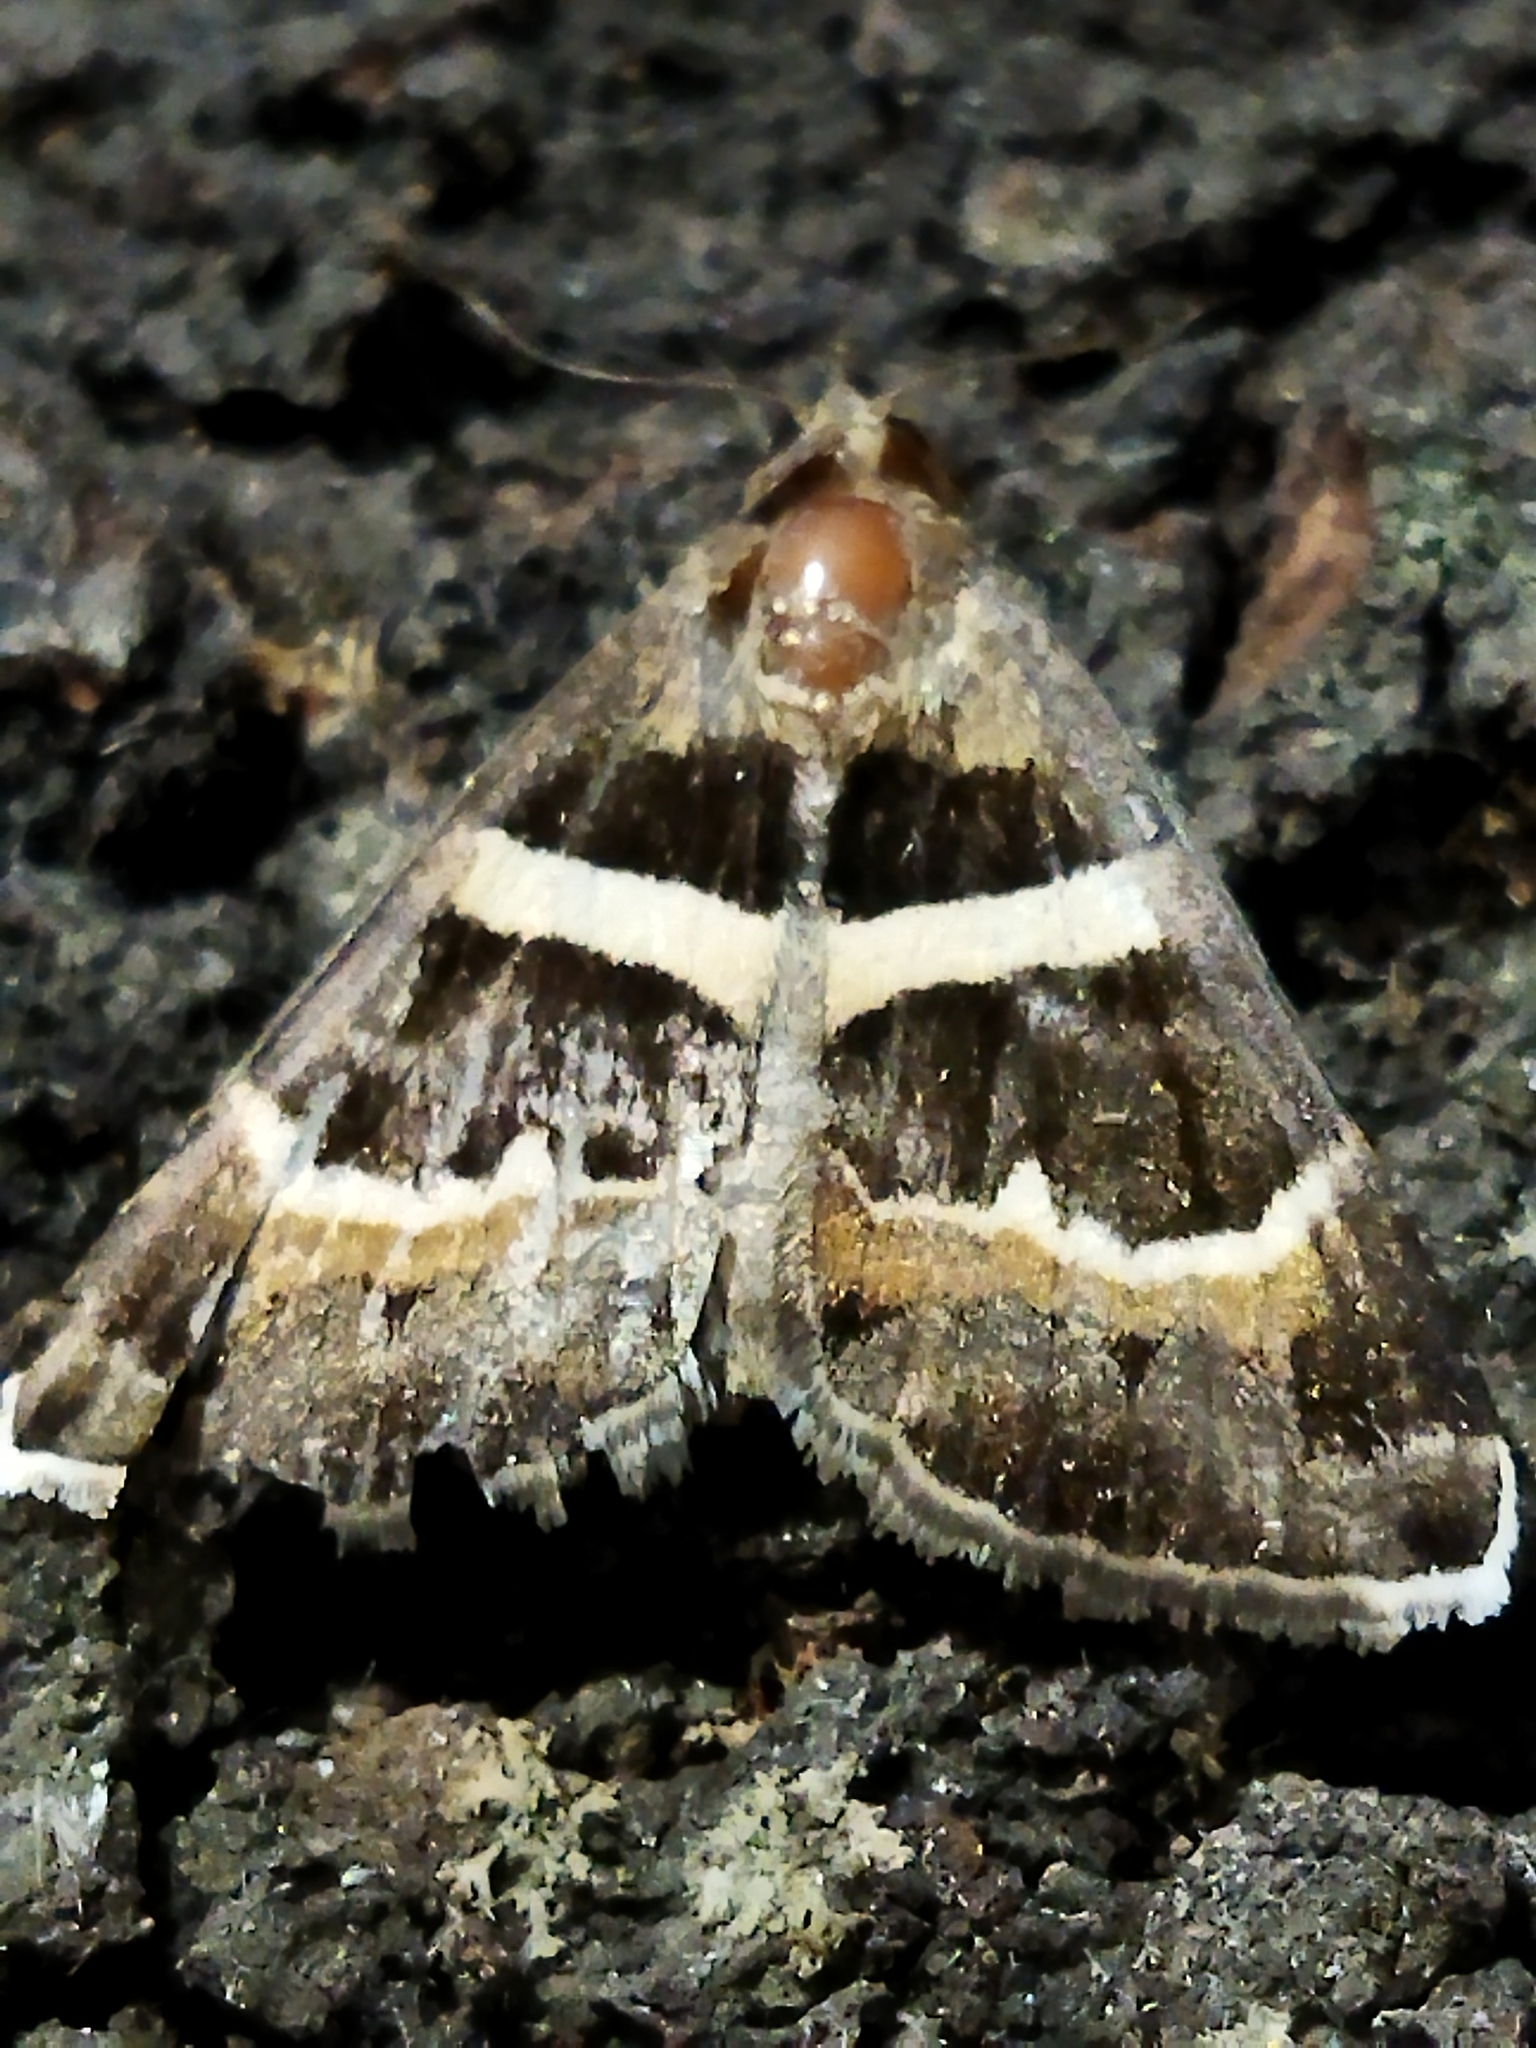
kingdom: Animalia
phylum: Arthropoda
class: Insecta
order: Lepidoptera
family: Erebidae
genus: Grammodes
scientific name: Grammodes stolida
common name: Geometrician
